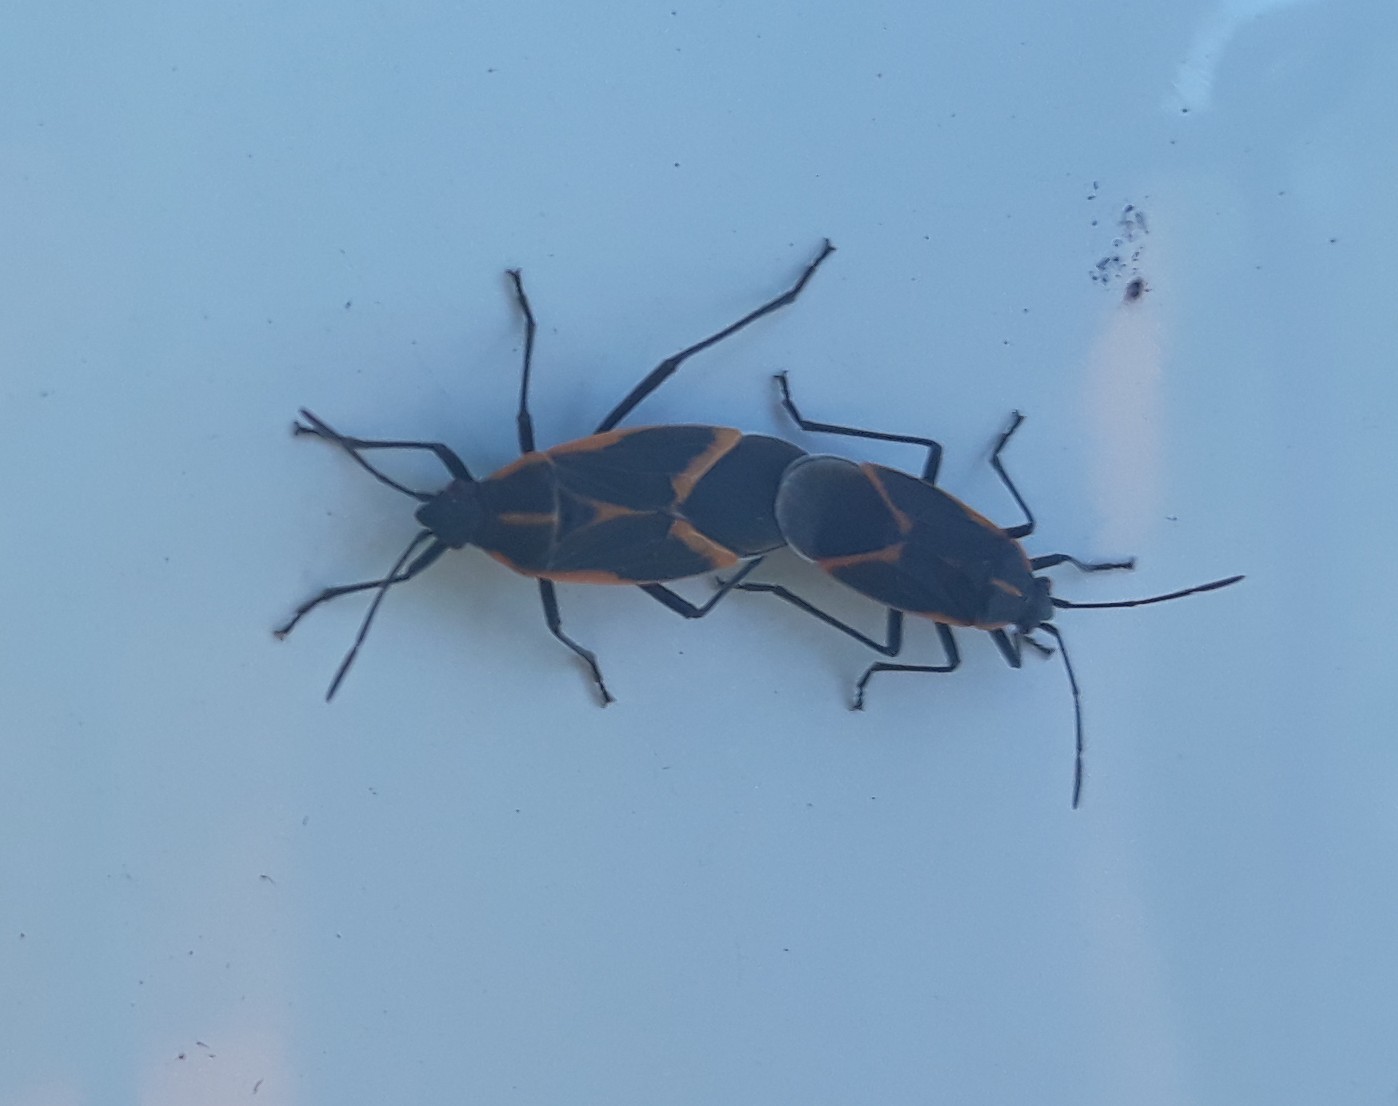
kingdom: Animalia
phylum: Arthropoda
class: Insecta
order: Hemiptera
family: Rhopalidae
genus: Boisea
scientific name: Boisea trivittata
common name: Boxelder bug
